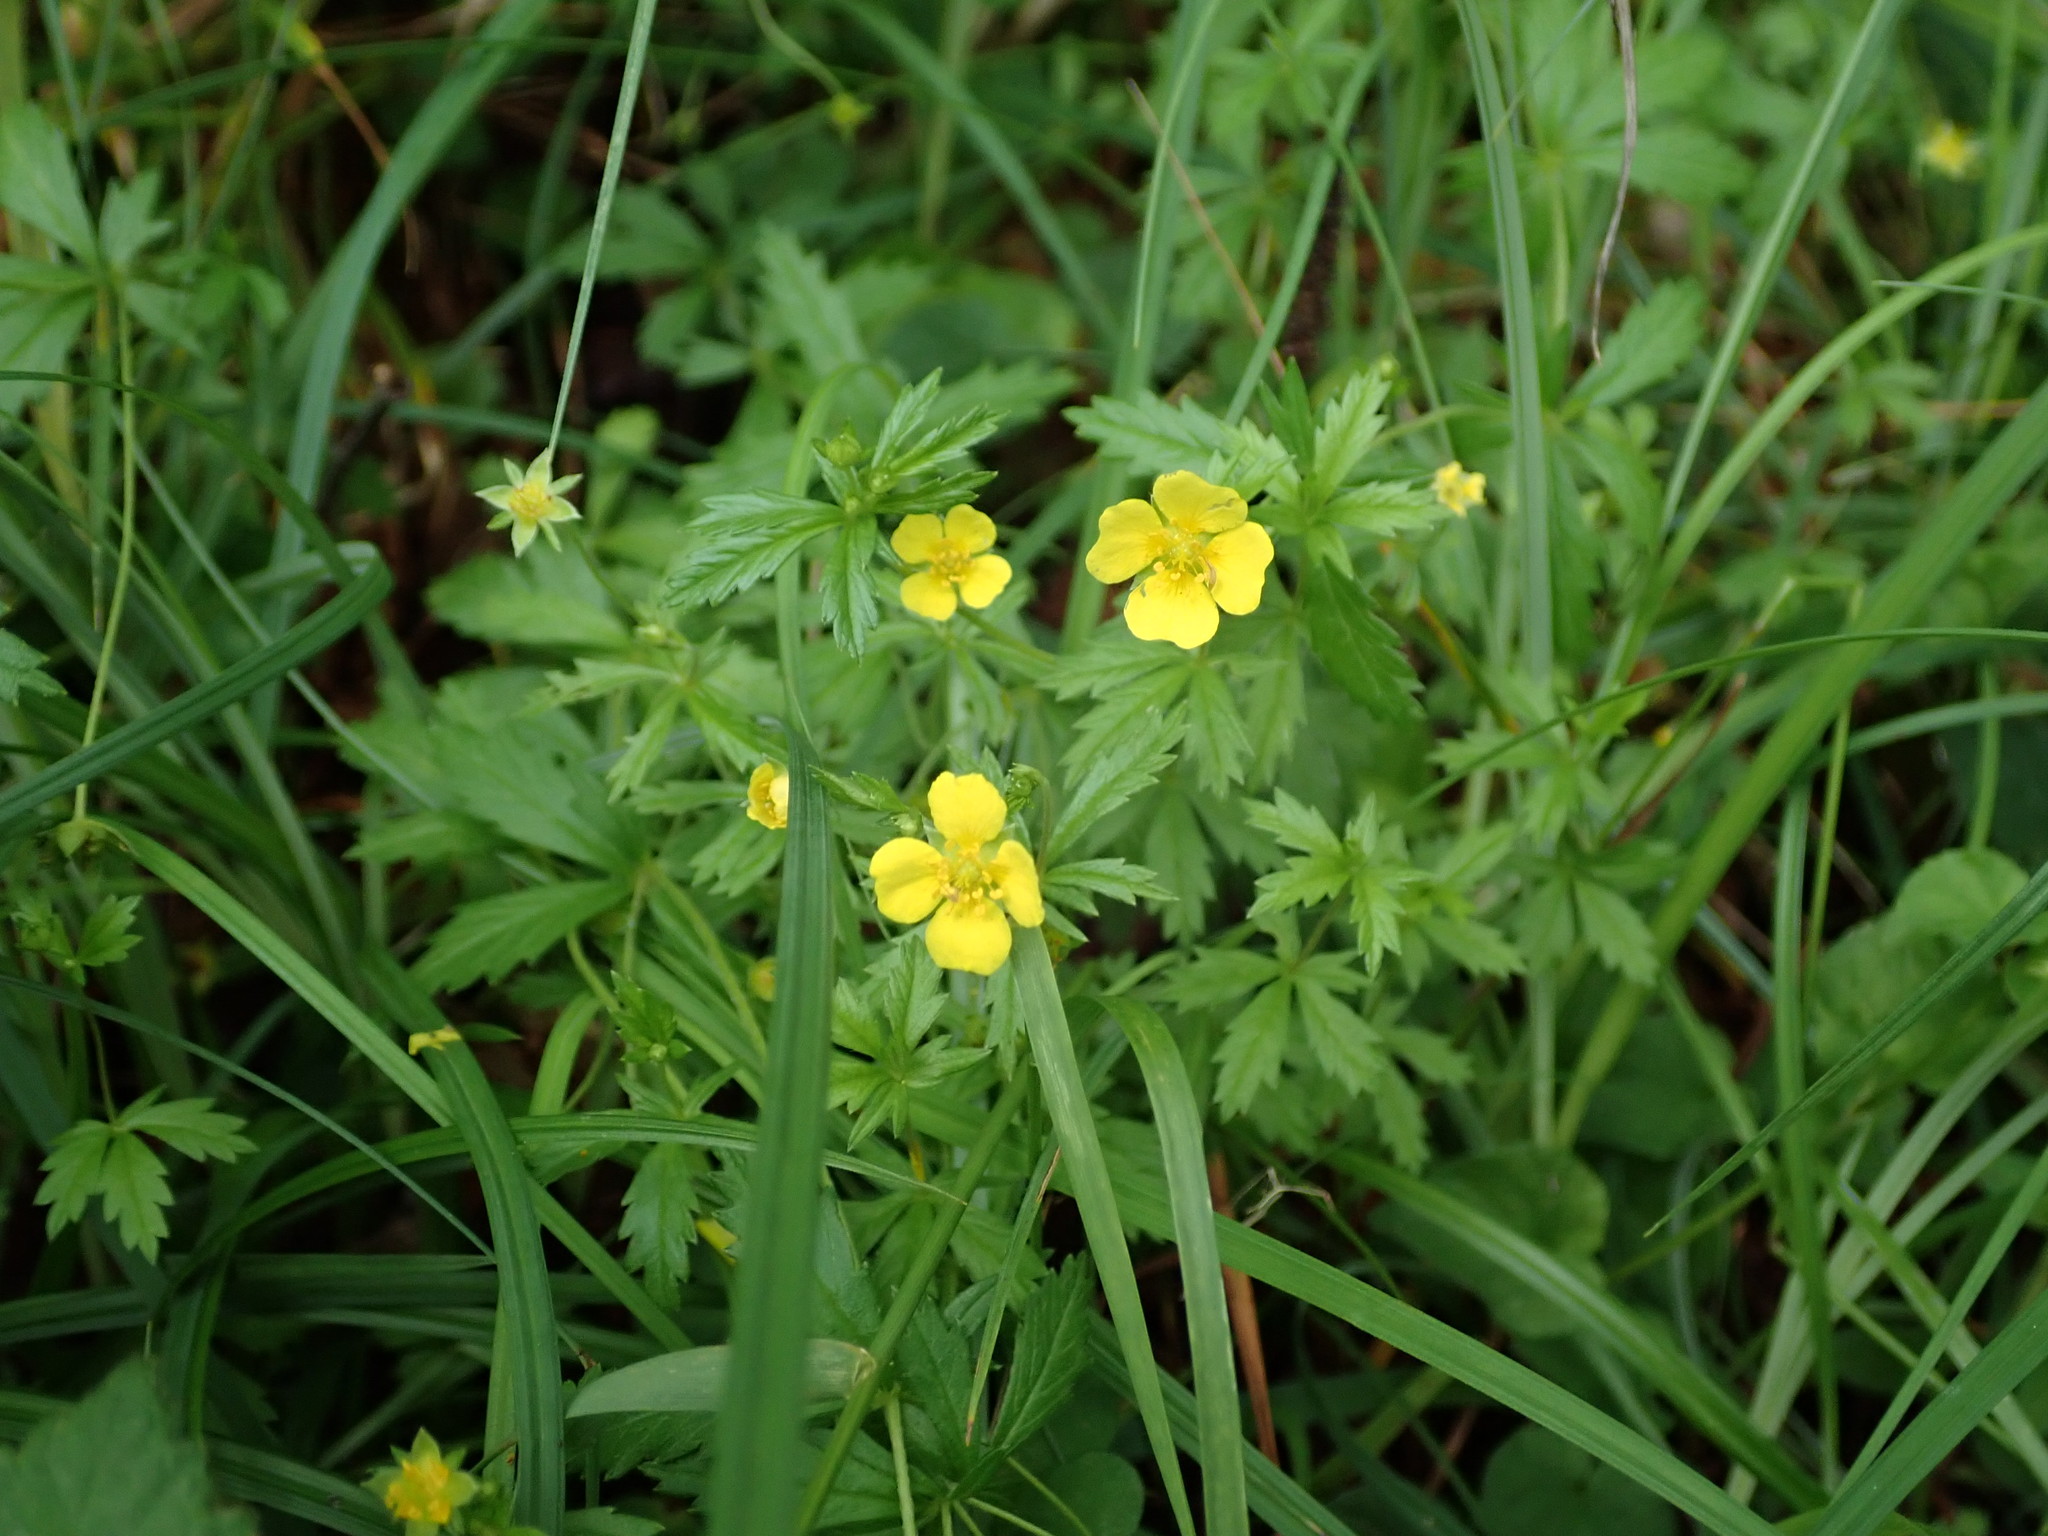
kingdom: Plantae
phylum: Tracheophyta
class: Magnoliopsida
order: Rosales
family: Rosaceae
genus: Potentilla
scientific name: Potentilla erecta
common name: Tormentil
